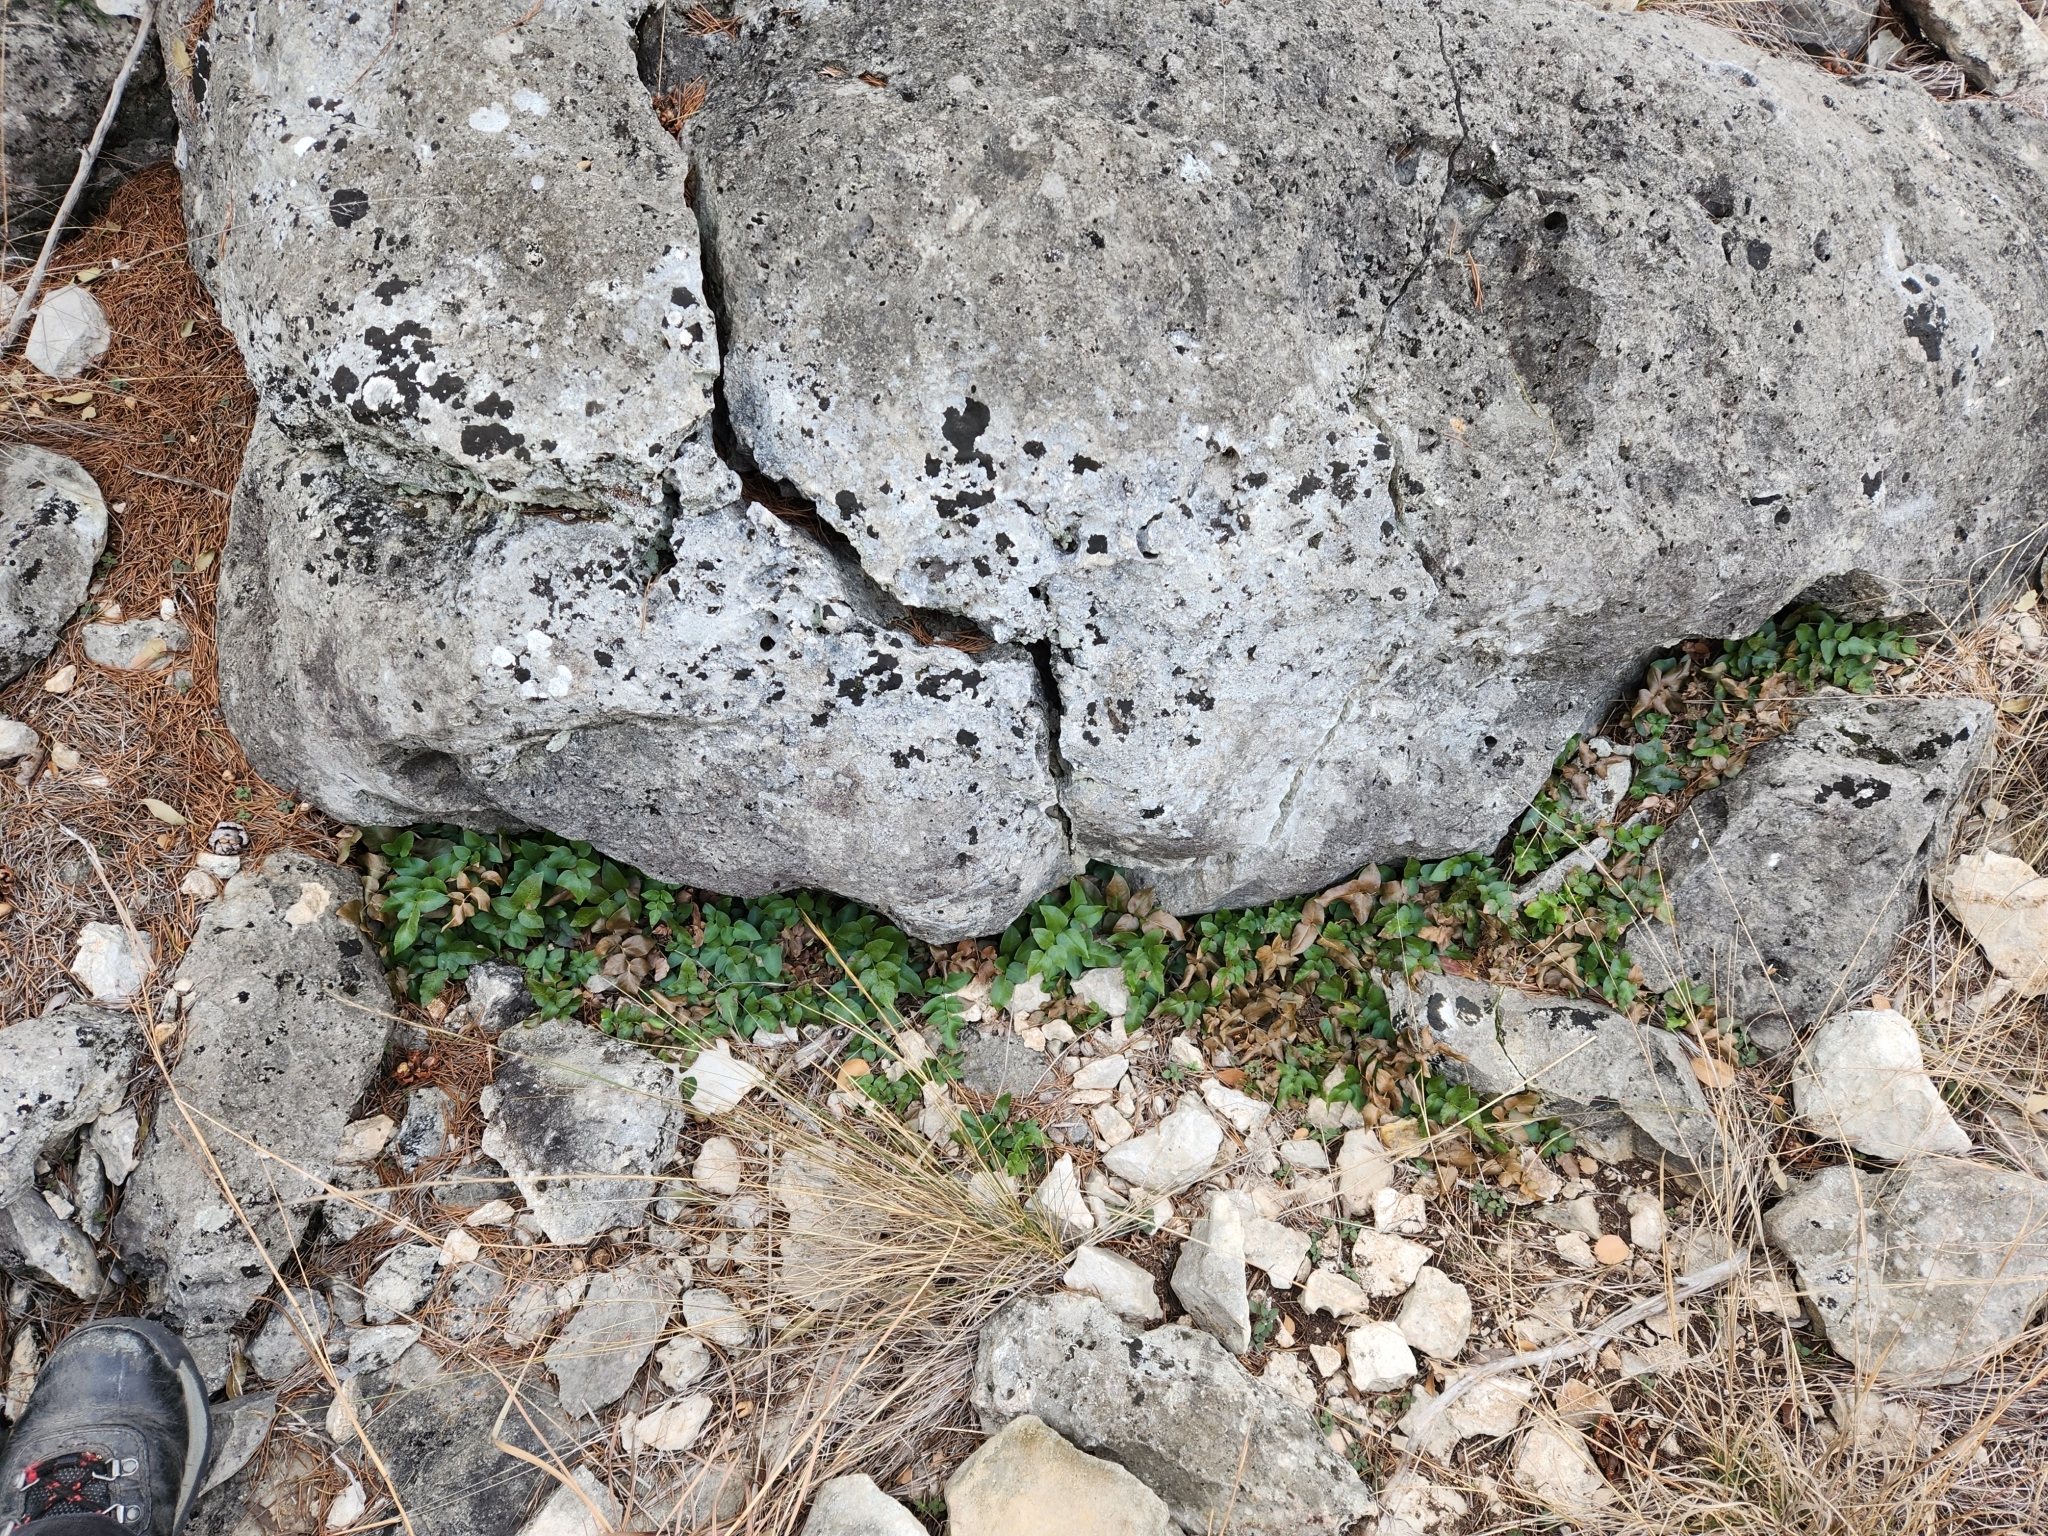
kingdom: Plantae
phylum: Tracheophyta
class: Polypodiopsida
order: Schizaeales
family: Anemiaceae
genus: Anemia
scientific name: Anemia mexicana
